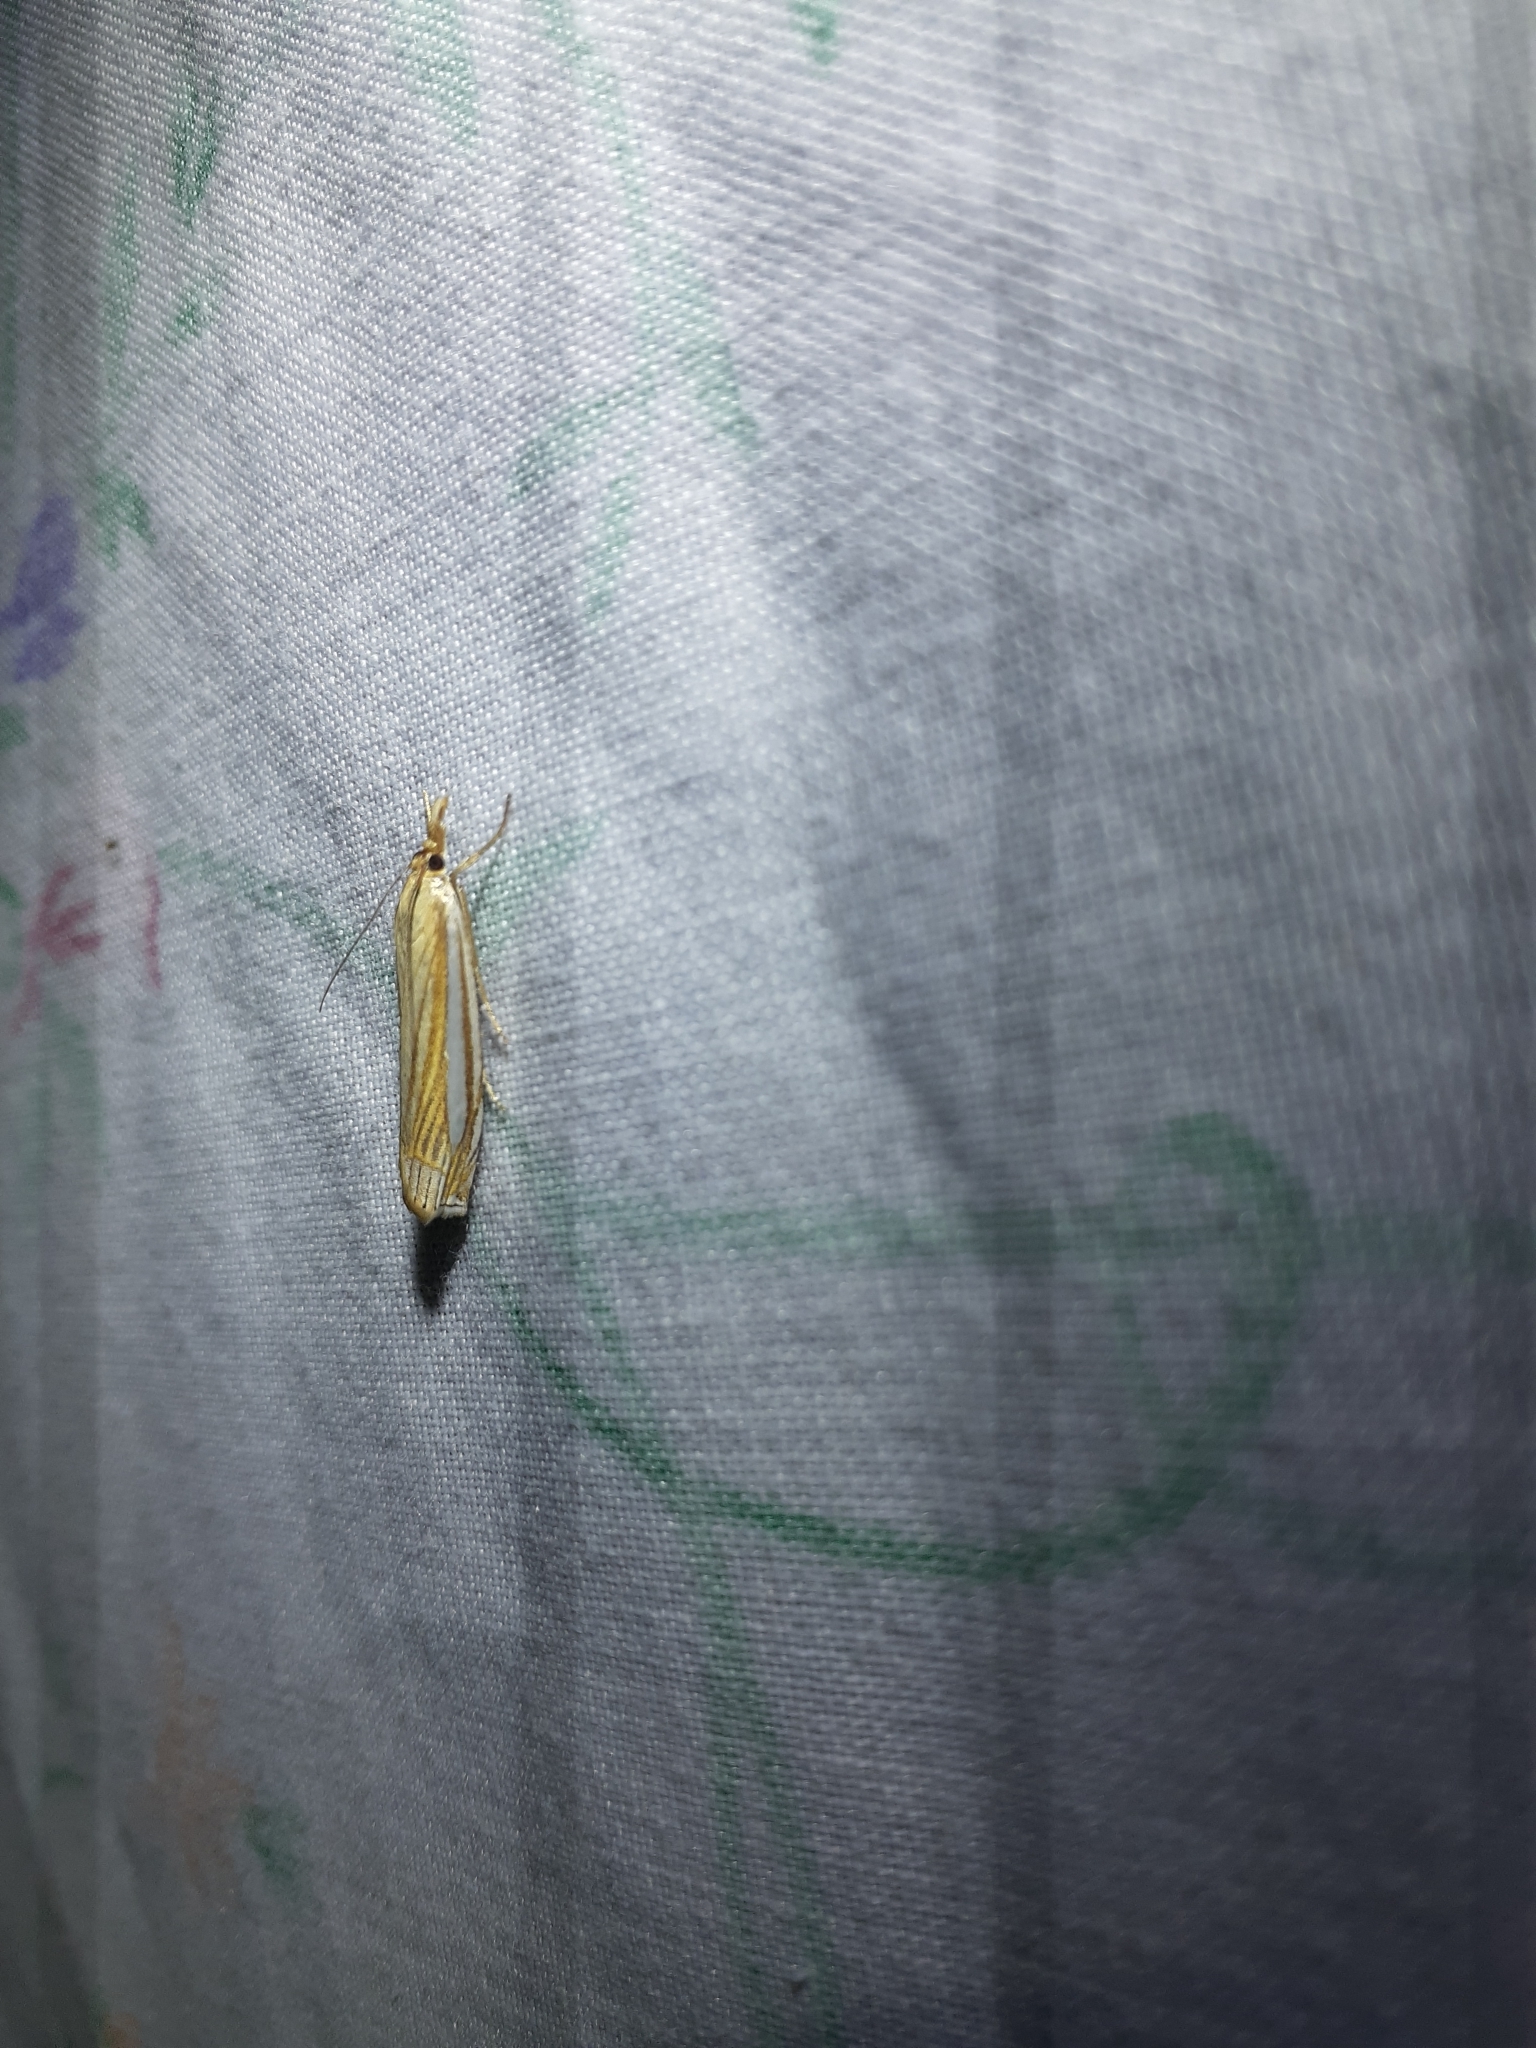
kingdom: Animalia
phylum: Arthropoda
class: Insecta
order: Lepidoptera
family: Crambidae
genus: Crambus
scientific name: Crambus laqueatellus
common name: Eastern grass-veneer
